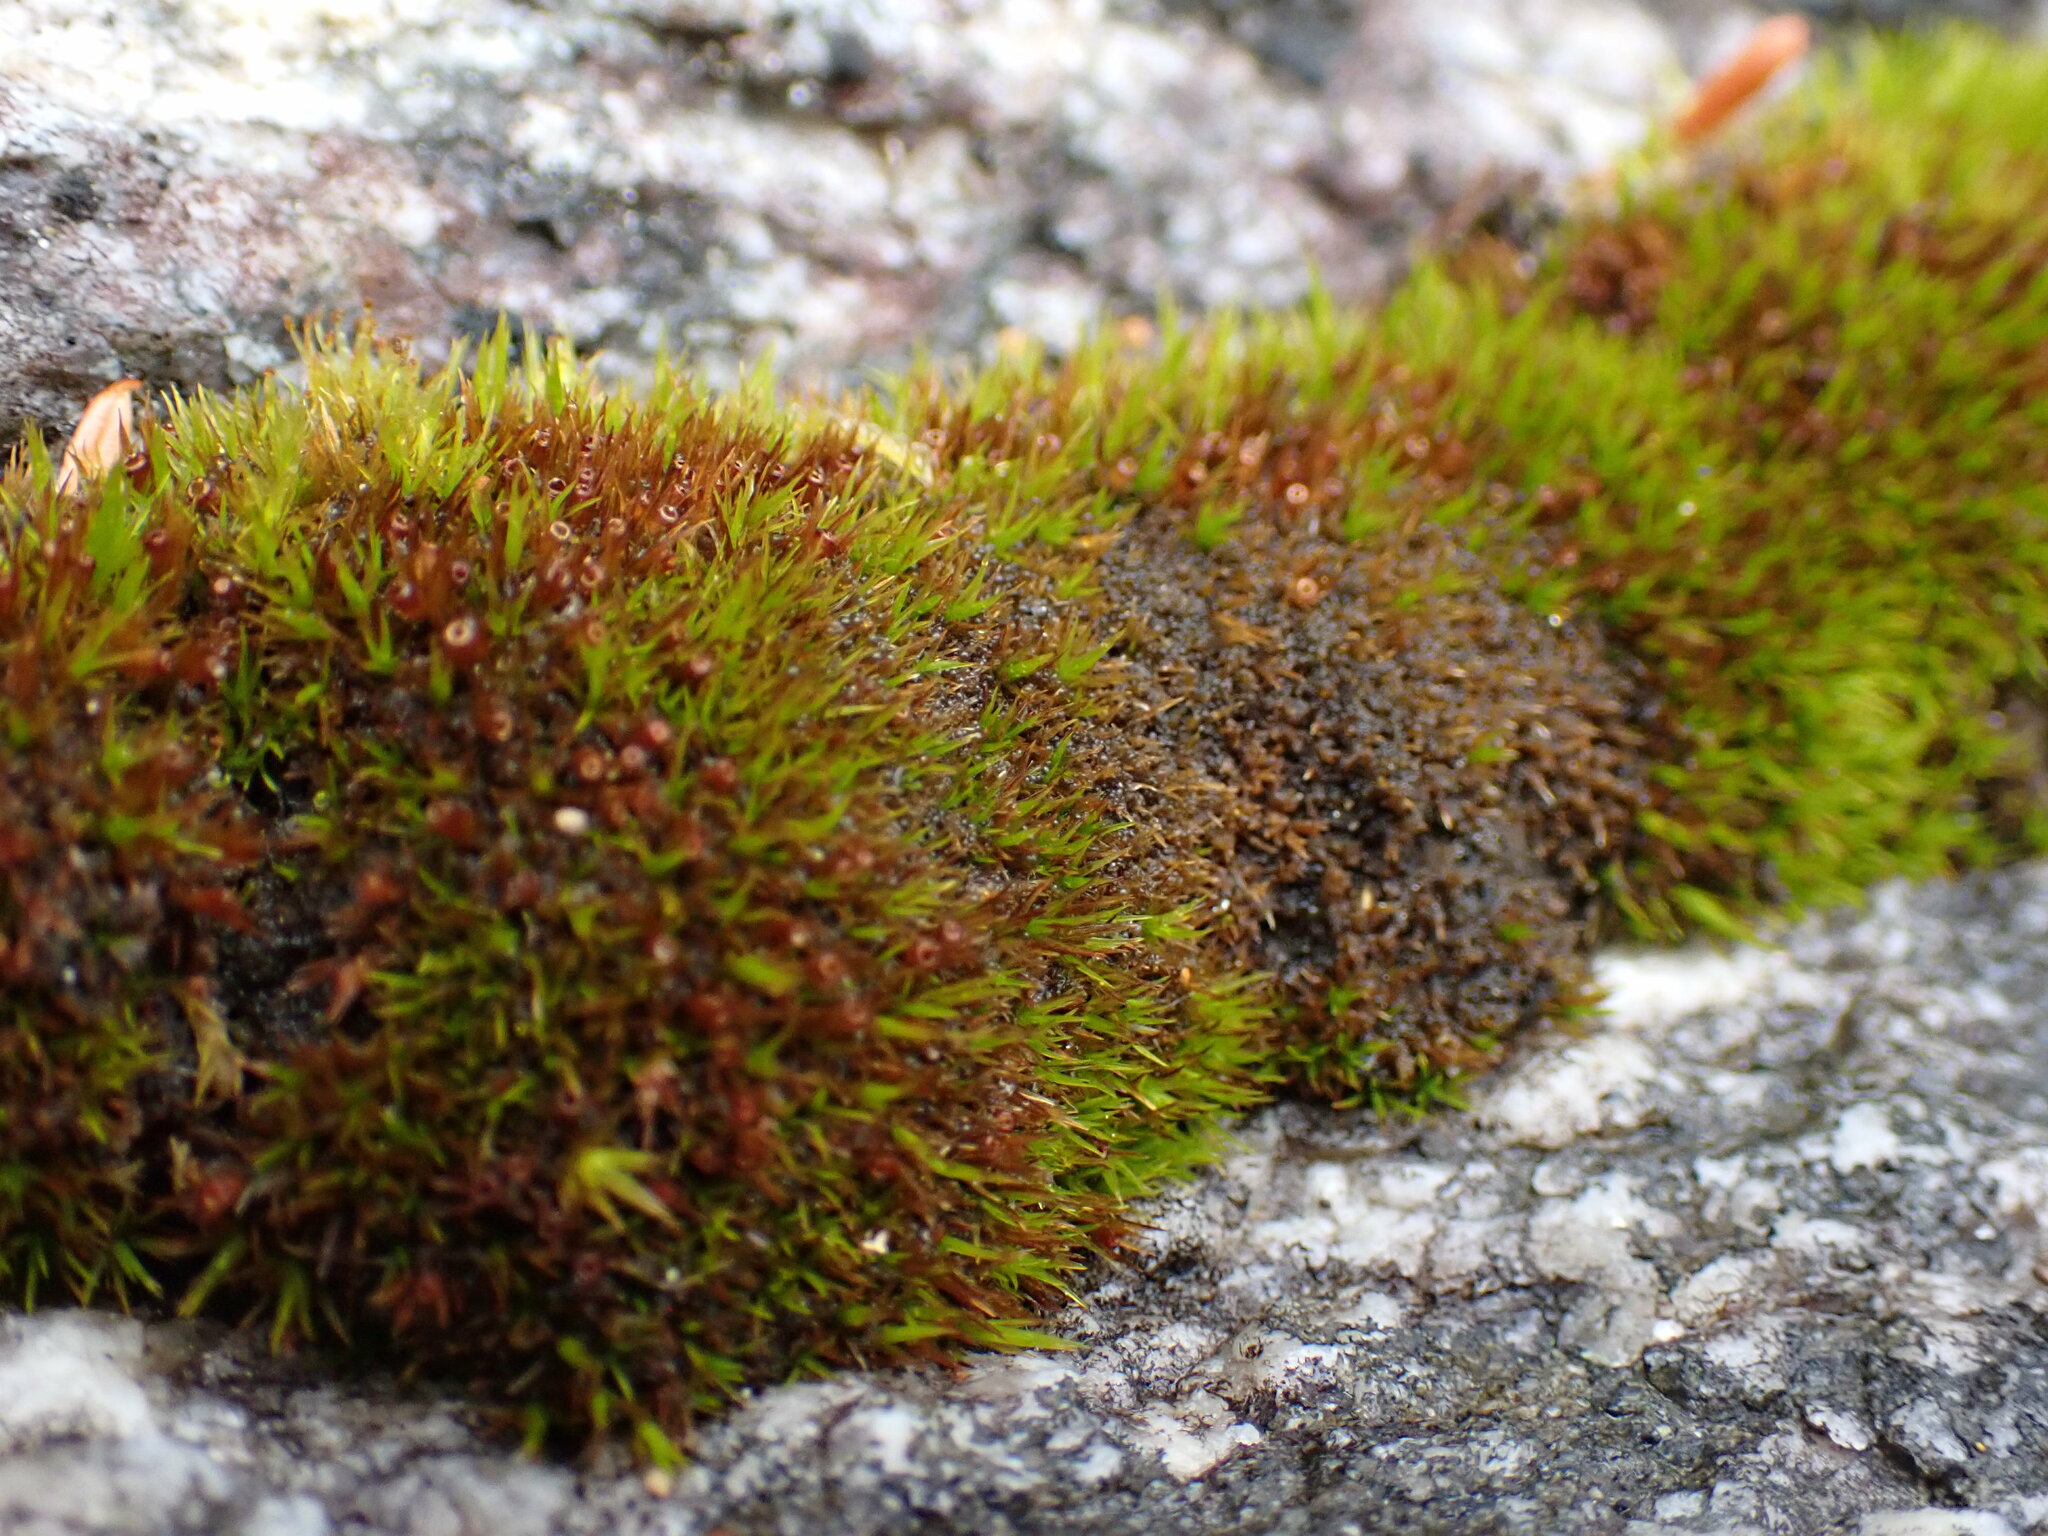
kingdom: Plantae
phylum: Bryophyta
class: Bryopsida
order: Grimmiales
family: Grimmiaceae
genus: Schistidium
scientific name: Schistidium maritimum
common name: Seaside bloom moss
